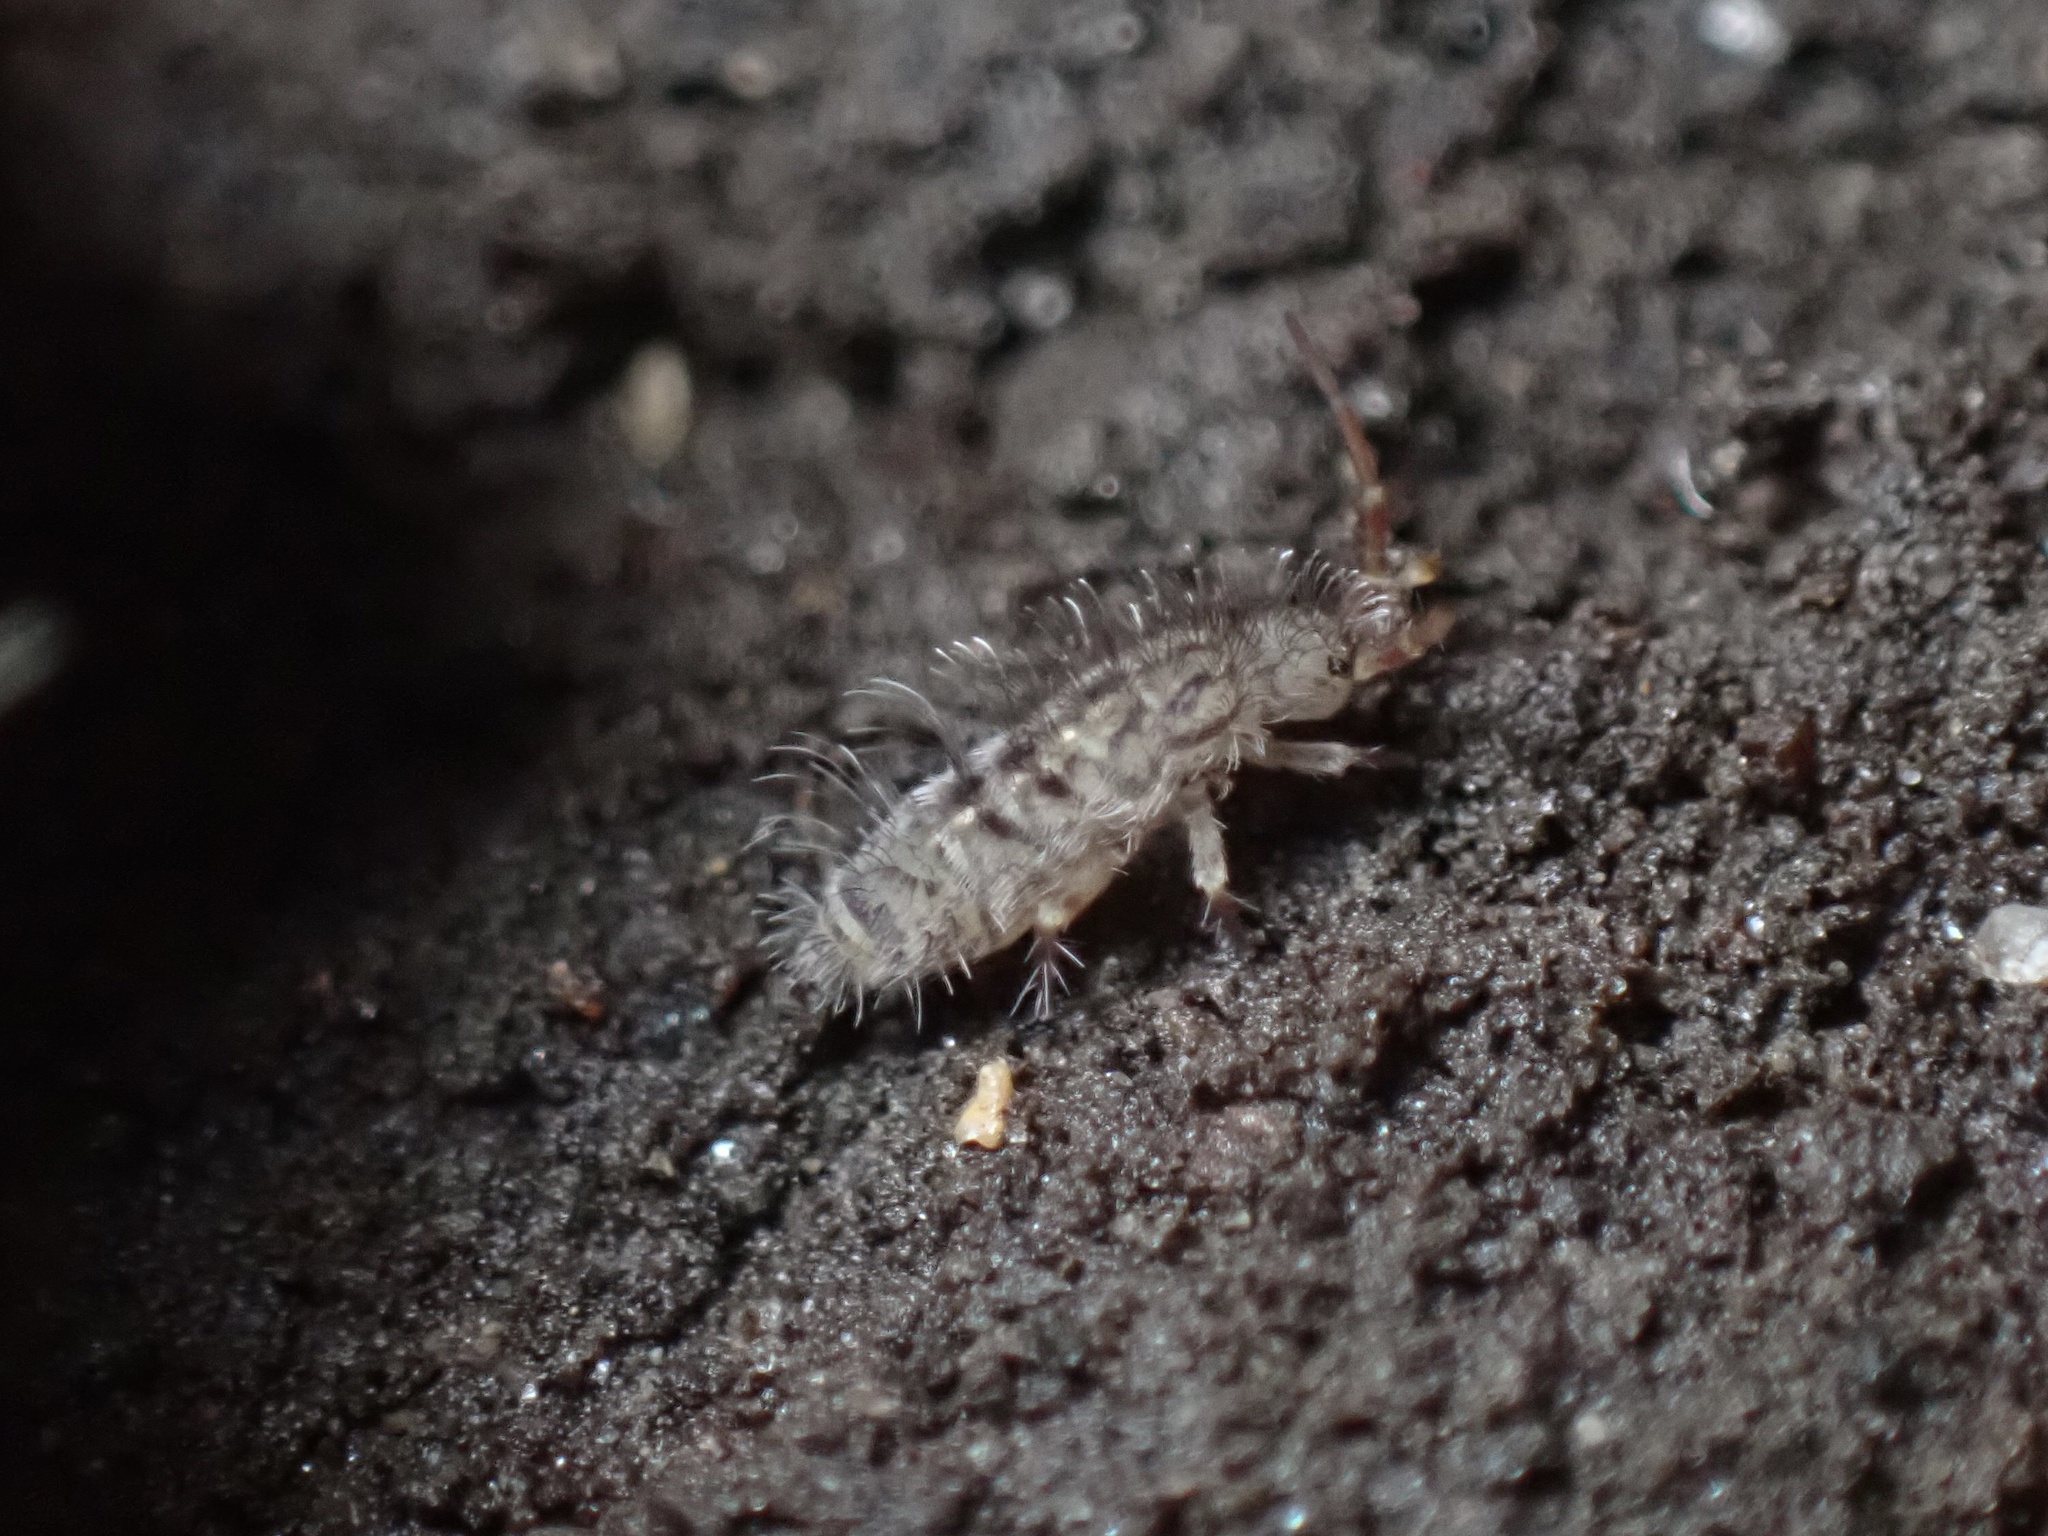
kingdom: Animalia
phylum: Arthropoda
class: Collembola
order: Entomobryomorpha
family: Orchesellidae
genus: Orchesella
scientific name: Orchesella villosa
